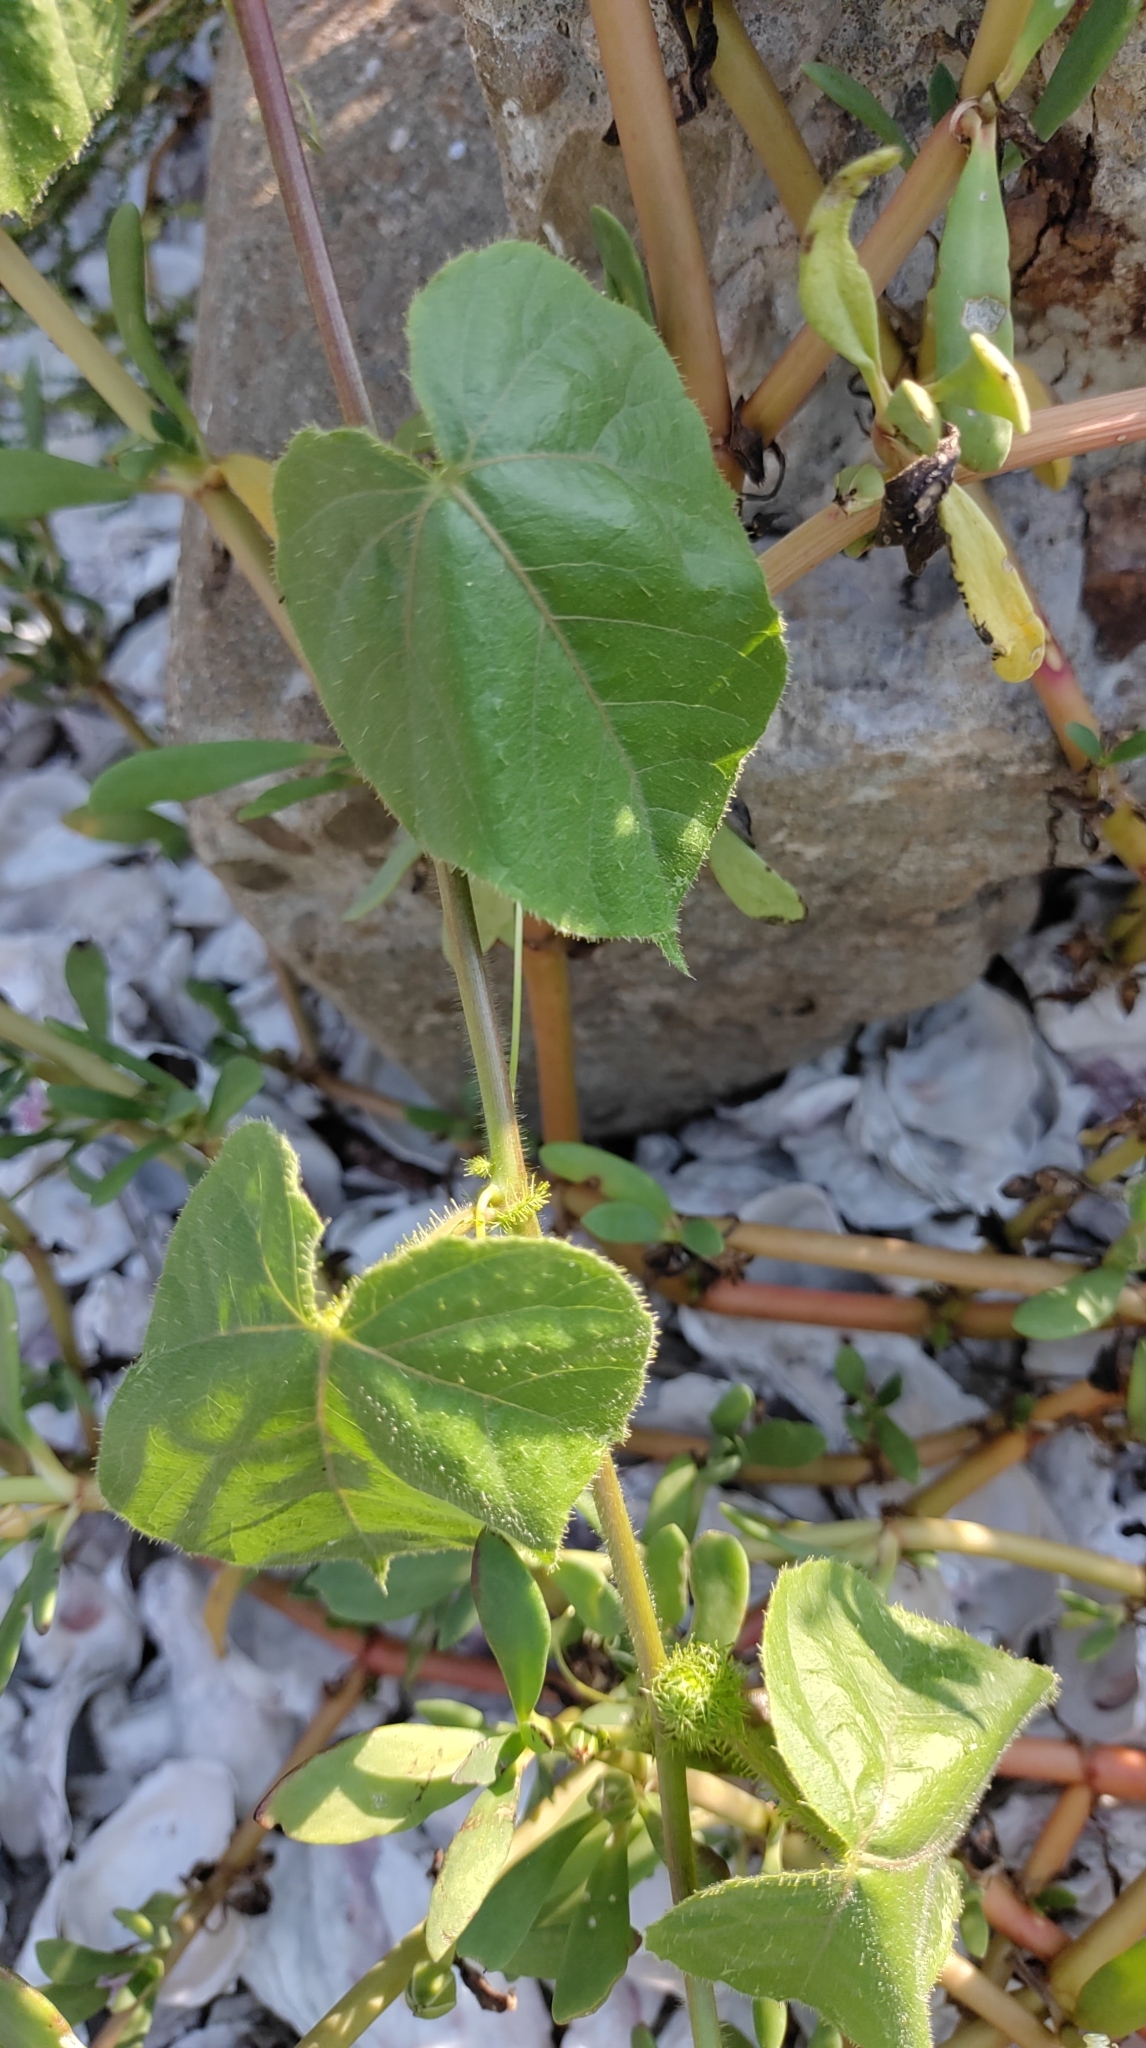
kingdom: Plantae
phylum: Tracheophyta
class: Magnoliopsida
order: Malpighiales
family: Passifloraceae
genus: Passiflora
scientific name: Passiflora vesicaria
